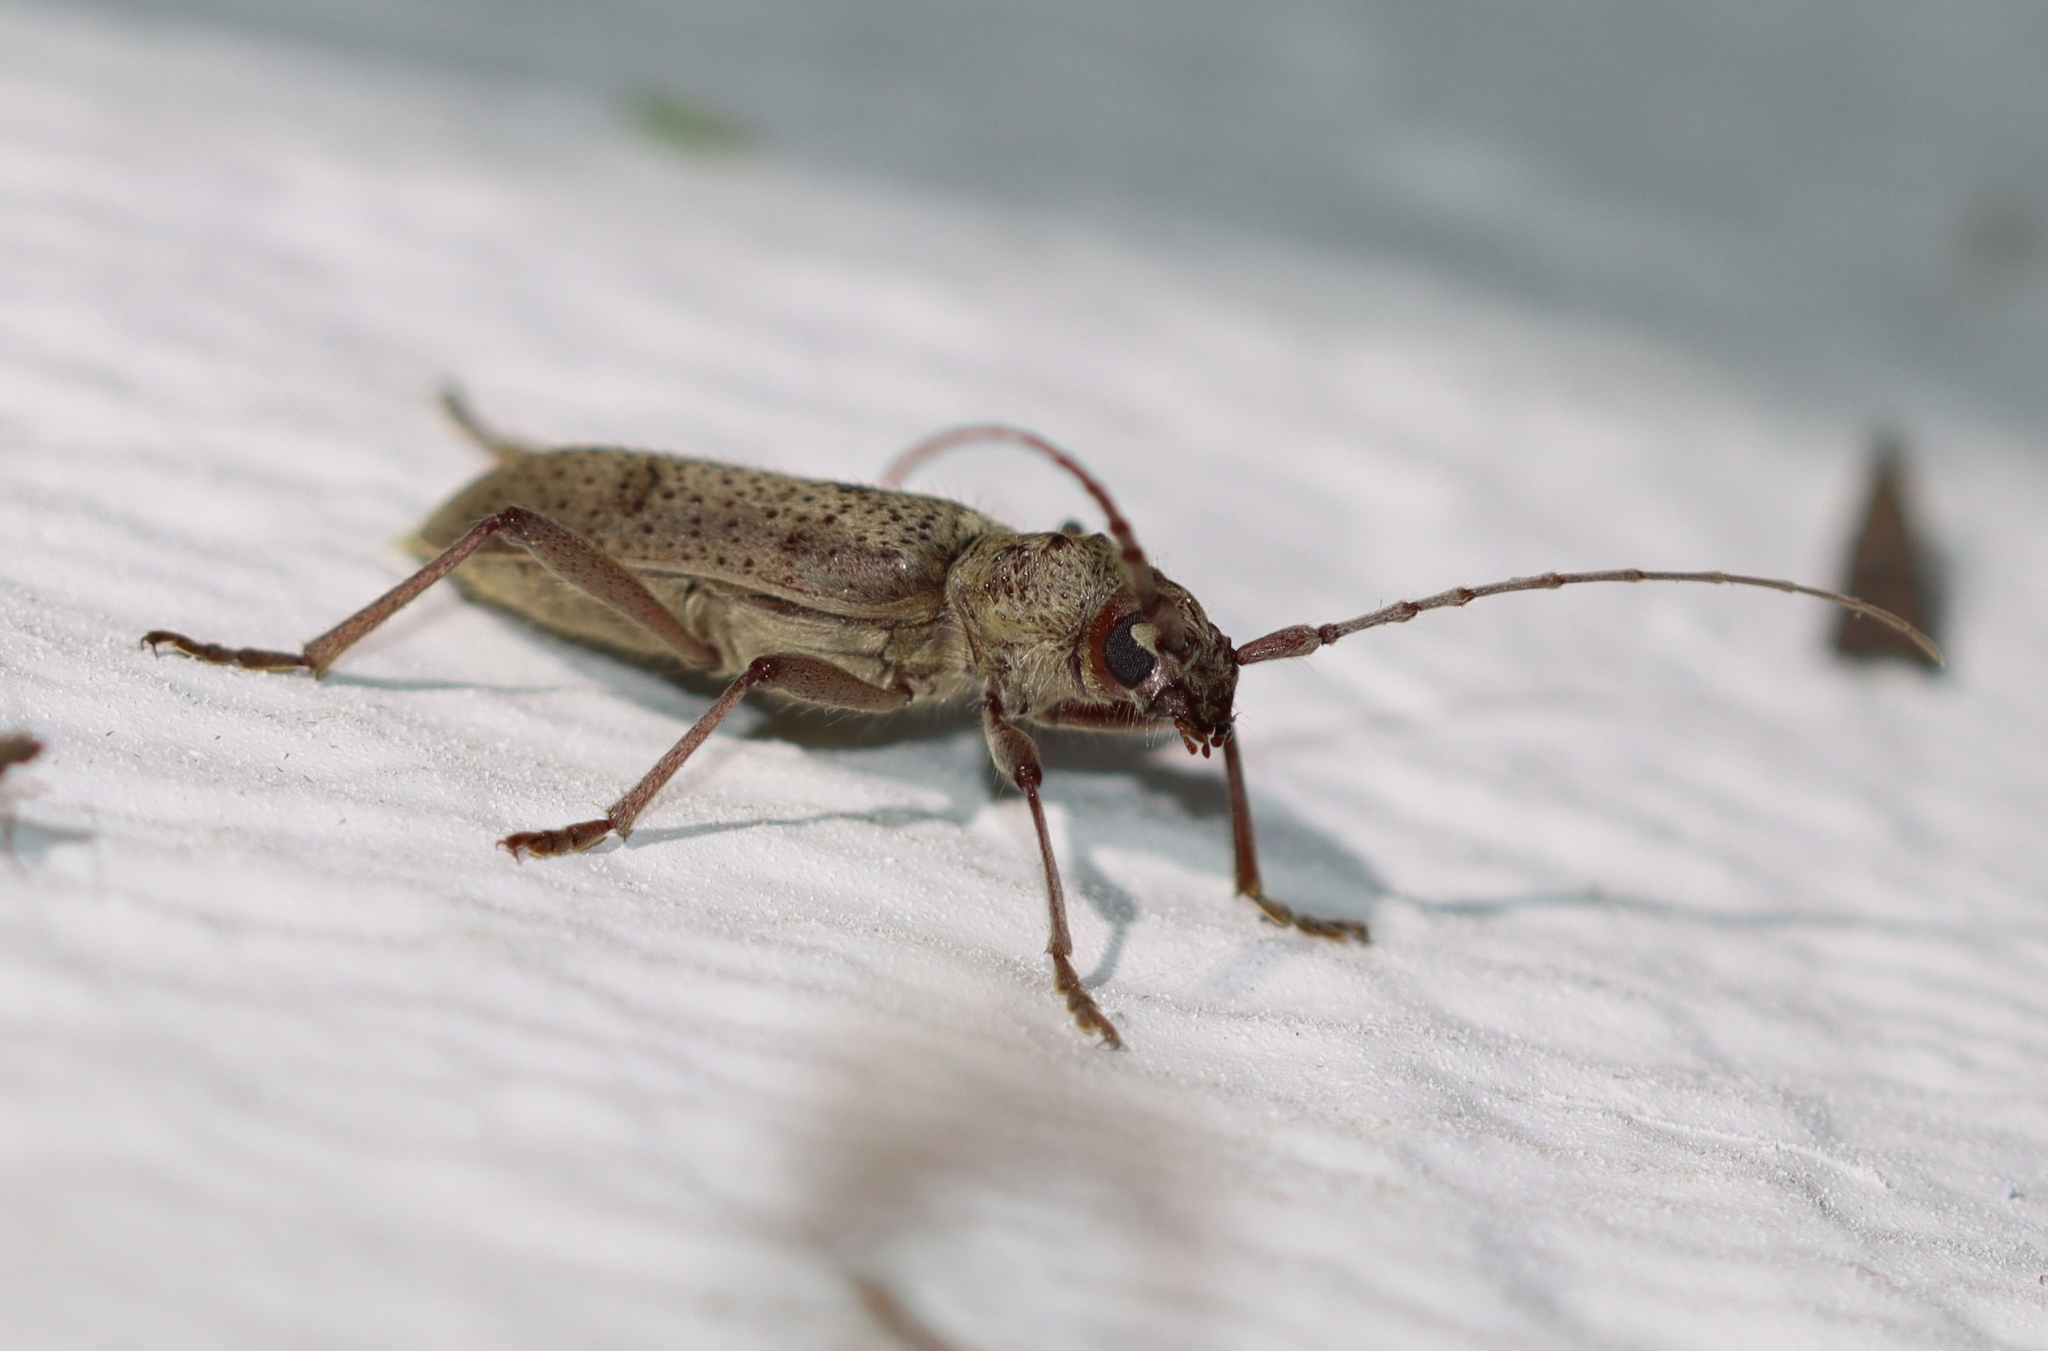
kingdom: Animalia
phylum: Arthropoda
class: Insecta
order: Coleoptera
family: Cerambycidae
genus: Brothylus
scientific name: Brothylus gemmulatus
